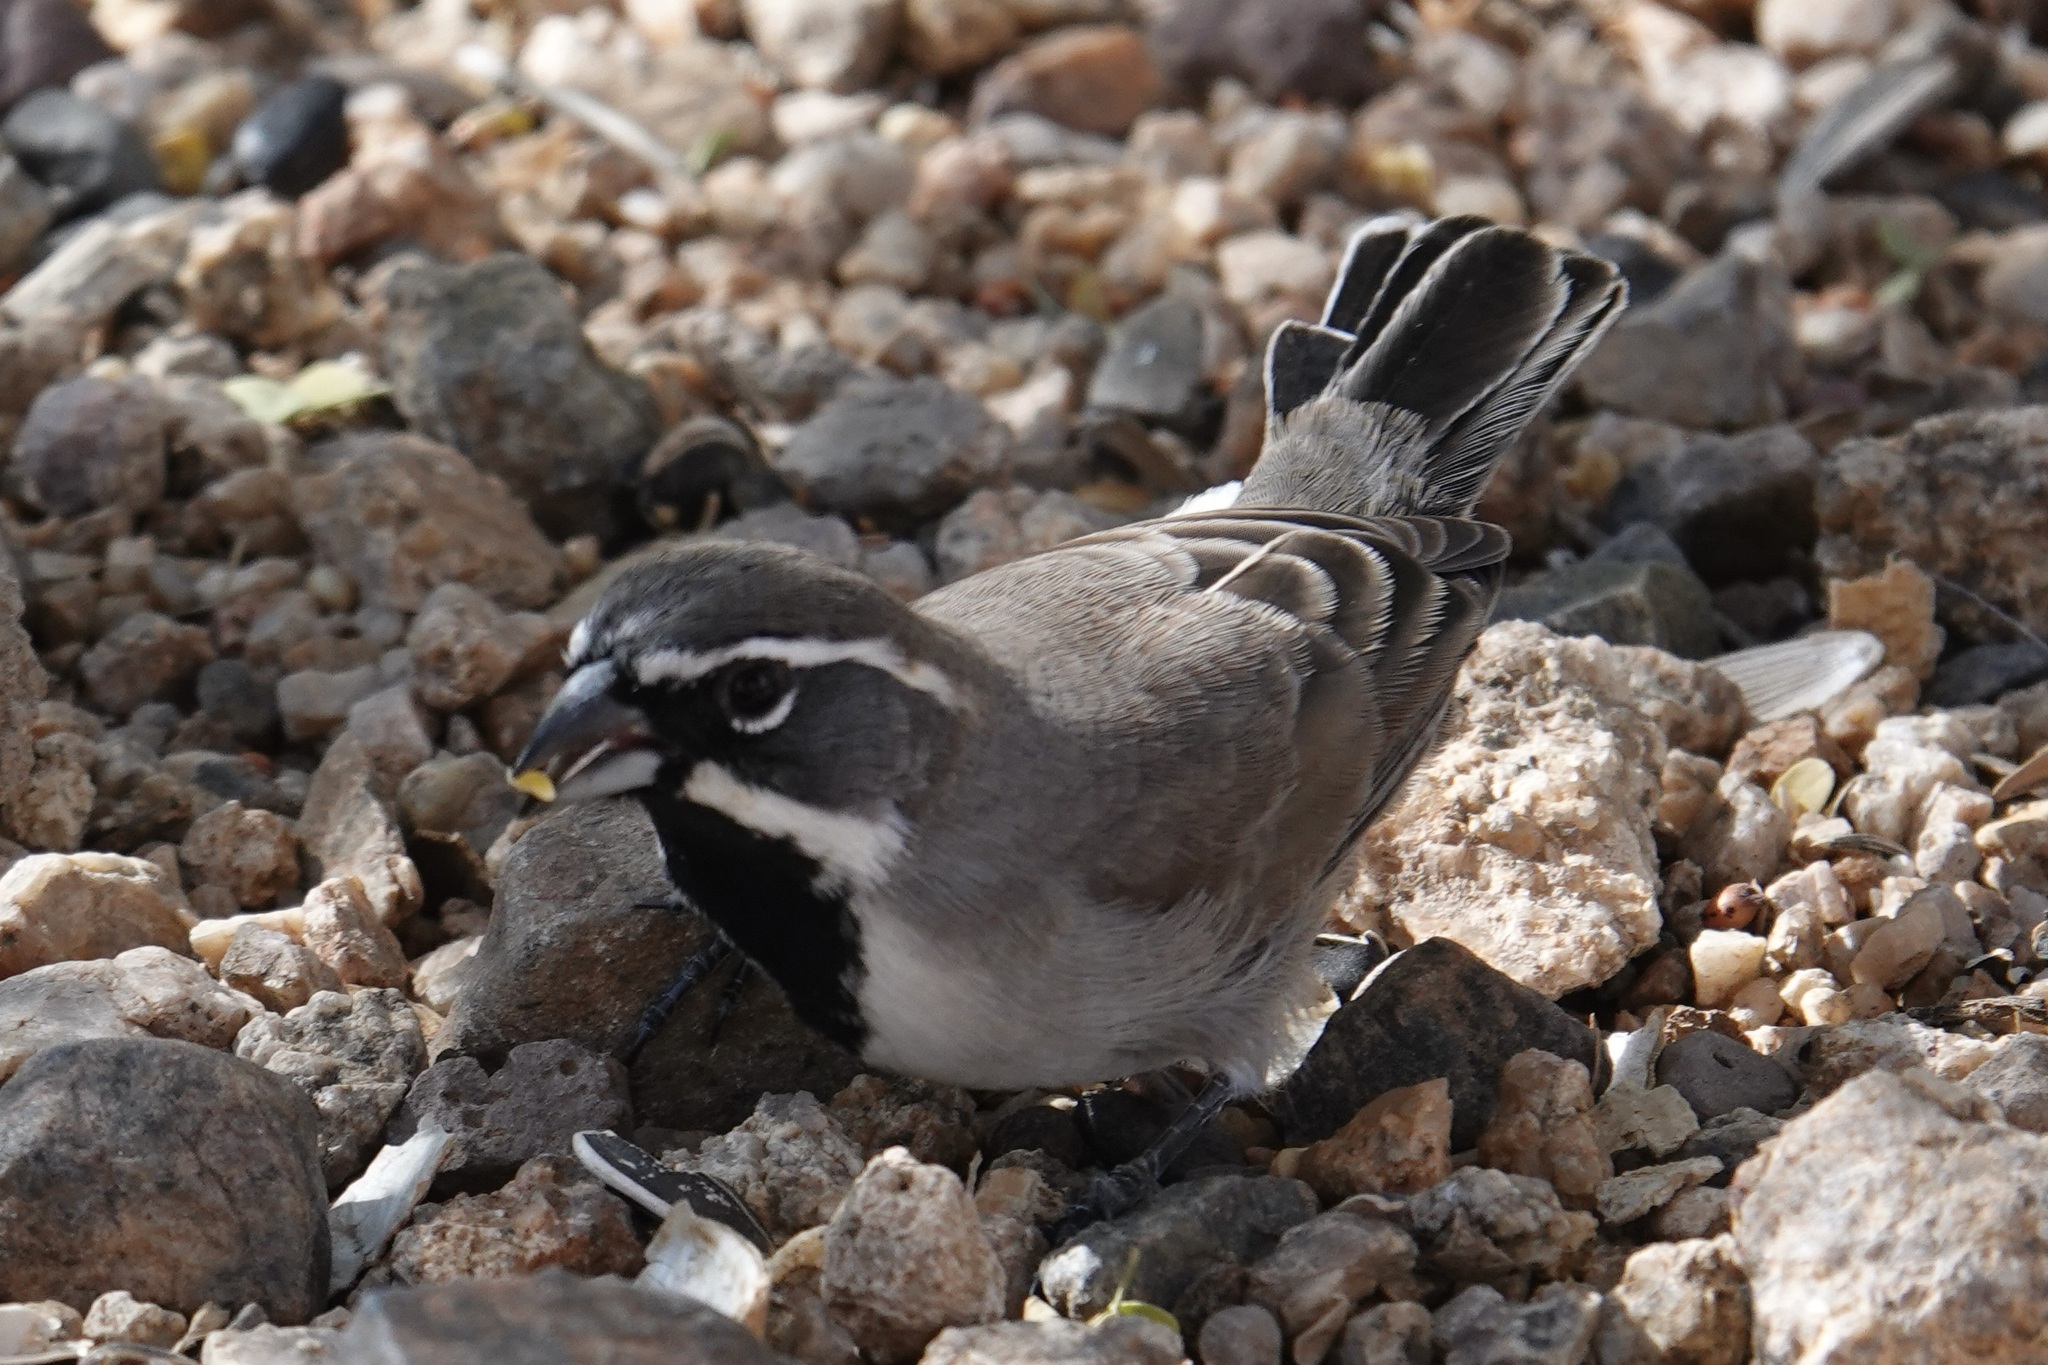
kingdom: Animalia
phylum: Chordata
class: Aves
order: Passeriformes
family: Passerellidae
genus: Amphispiza
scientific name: Amphispiza bilineata
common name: Black-throated sparrow
